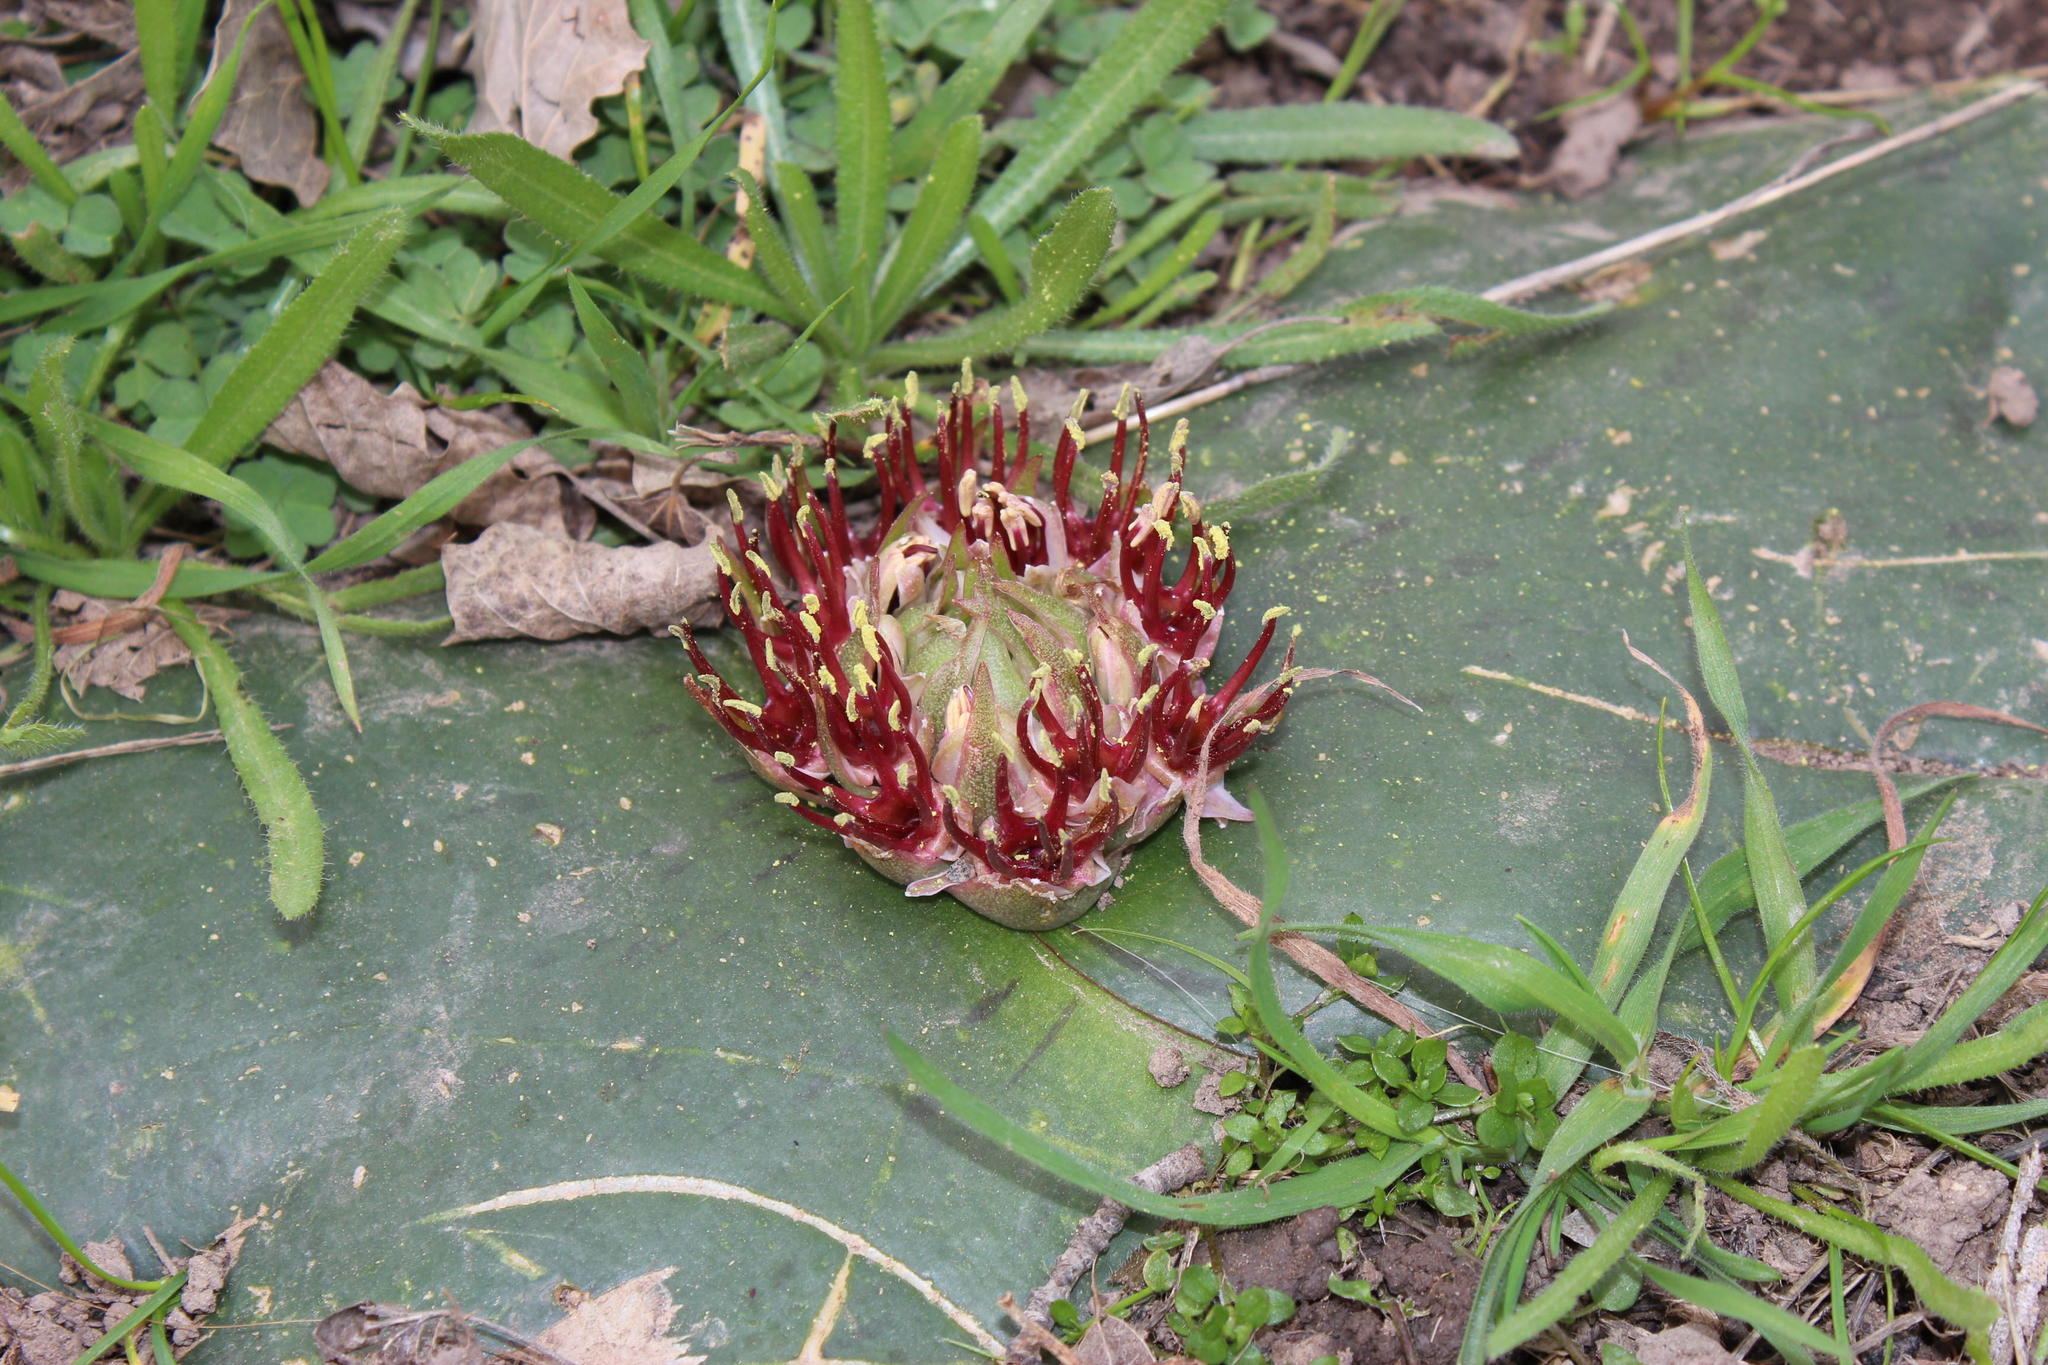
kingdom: Plantae
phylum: Tracheophyta
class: Liliopsida
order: Asparagales
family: Asparagaceae
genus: Massonia
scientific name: Massonia depressa
